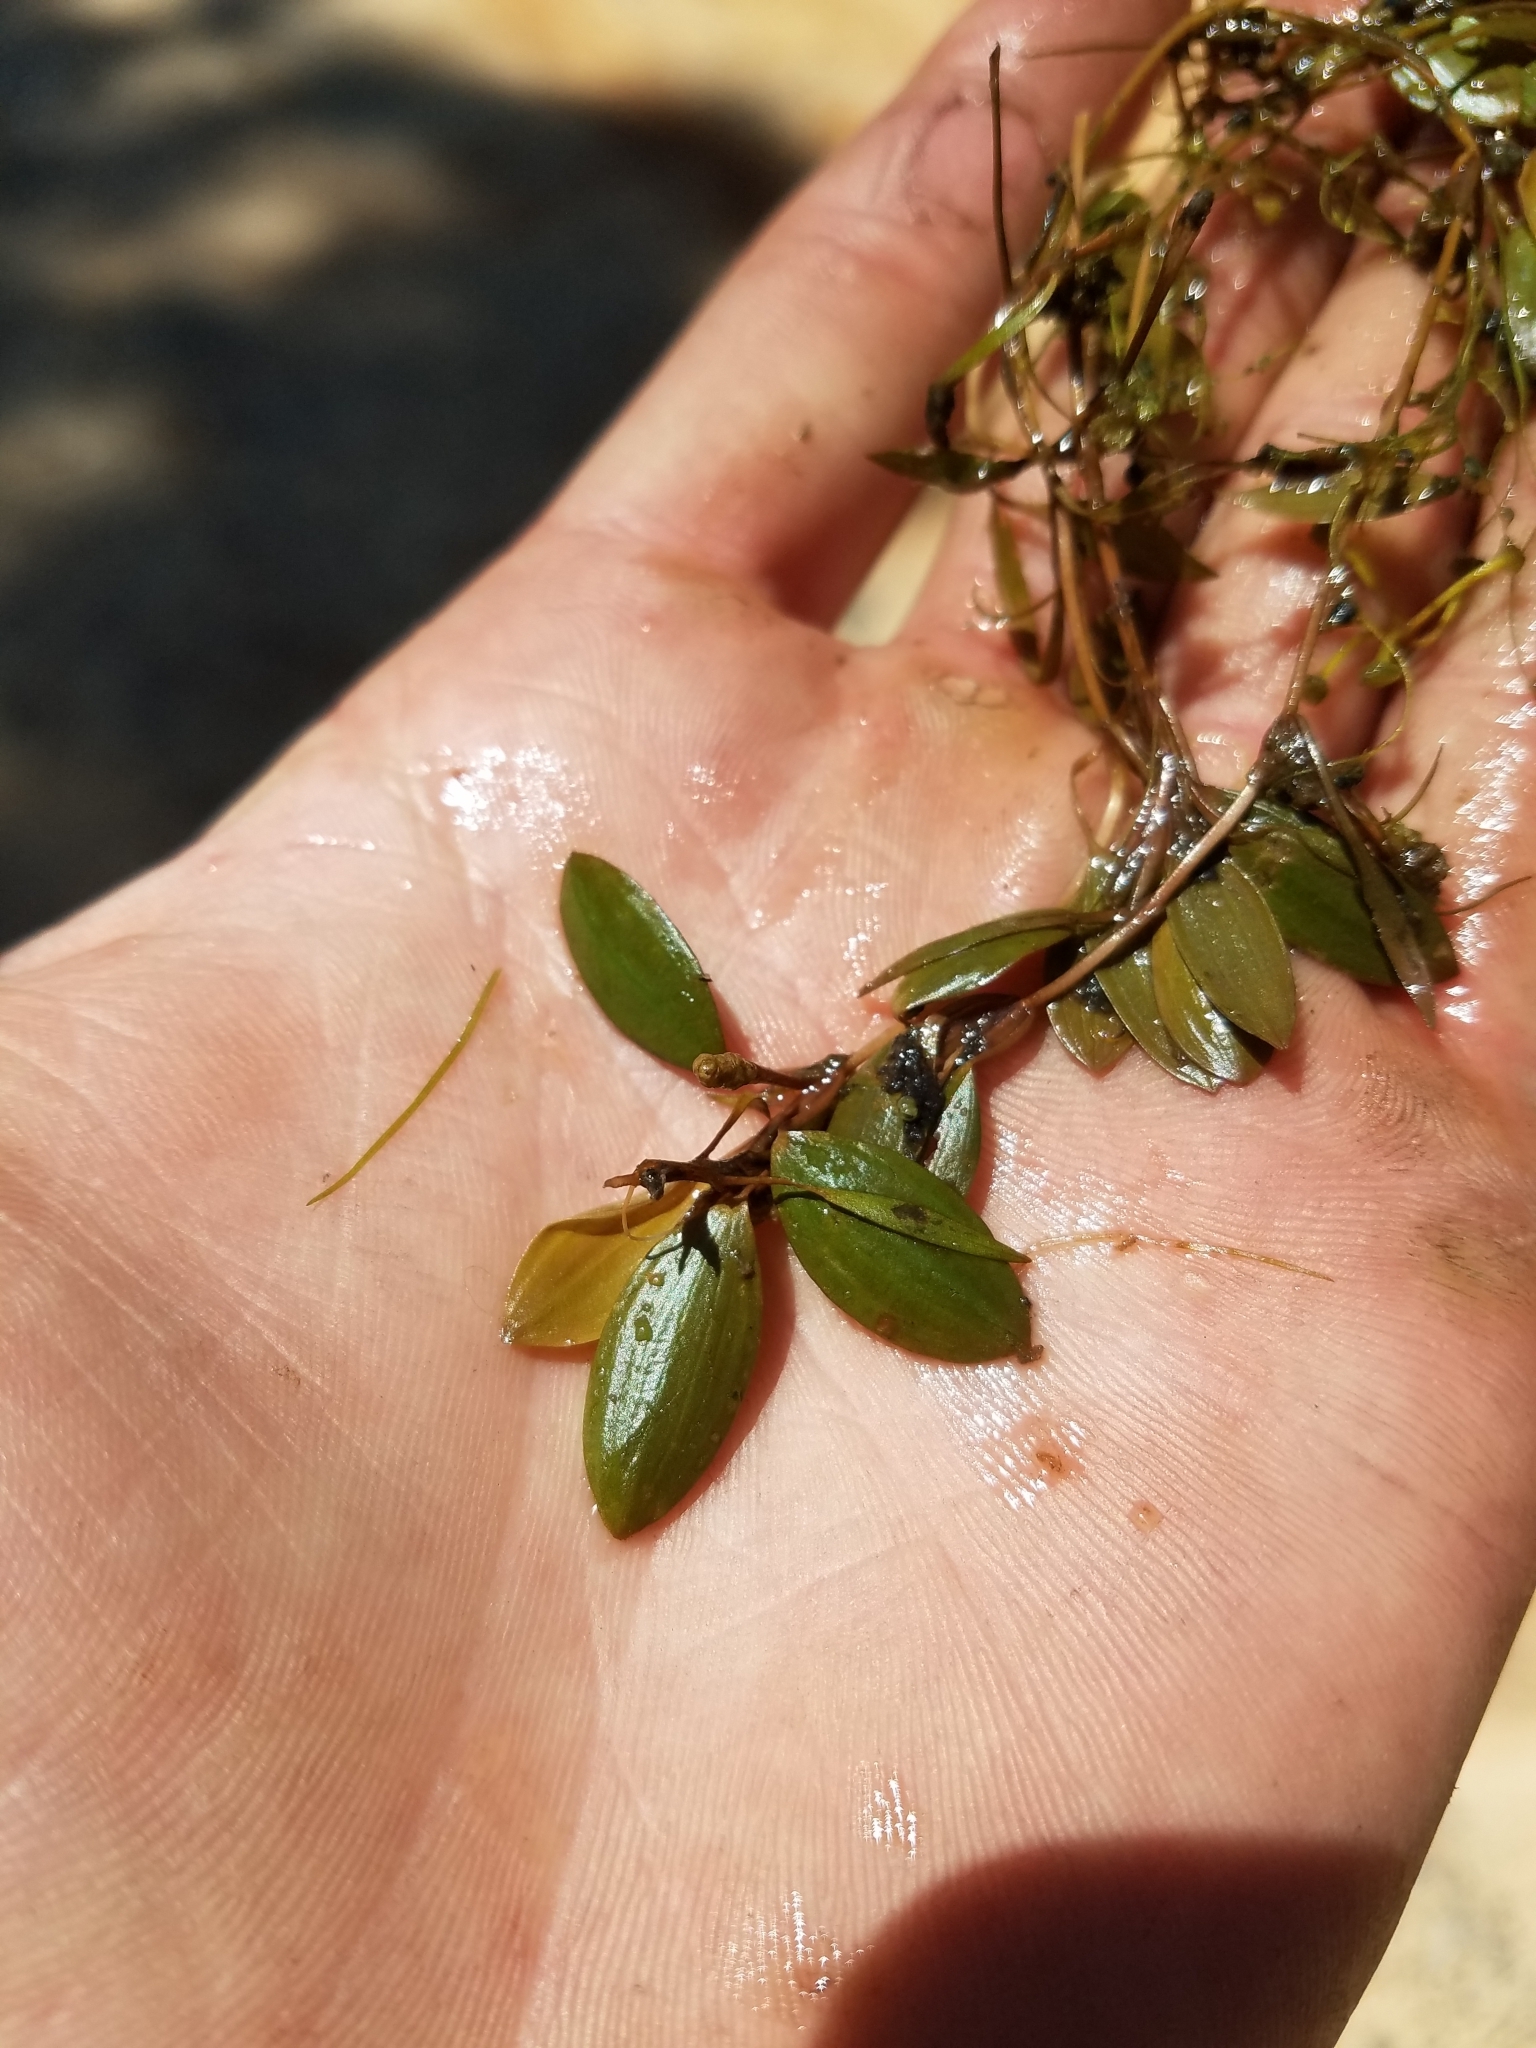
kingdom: Plantae
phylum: Tracheophyta
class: Liliopsida
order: Alismatales
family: Potamogetonaceae
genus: Potamogeton
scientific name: Potamogeton diversifolius
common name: Water-thread pondweed
